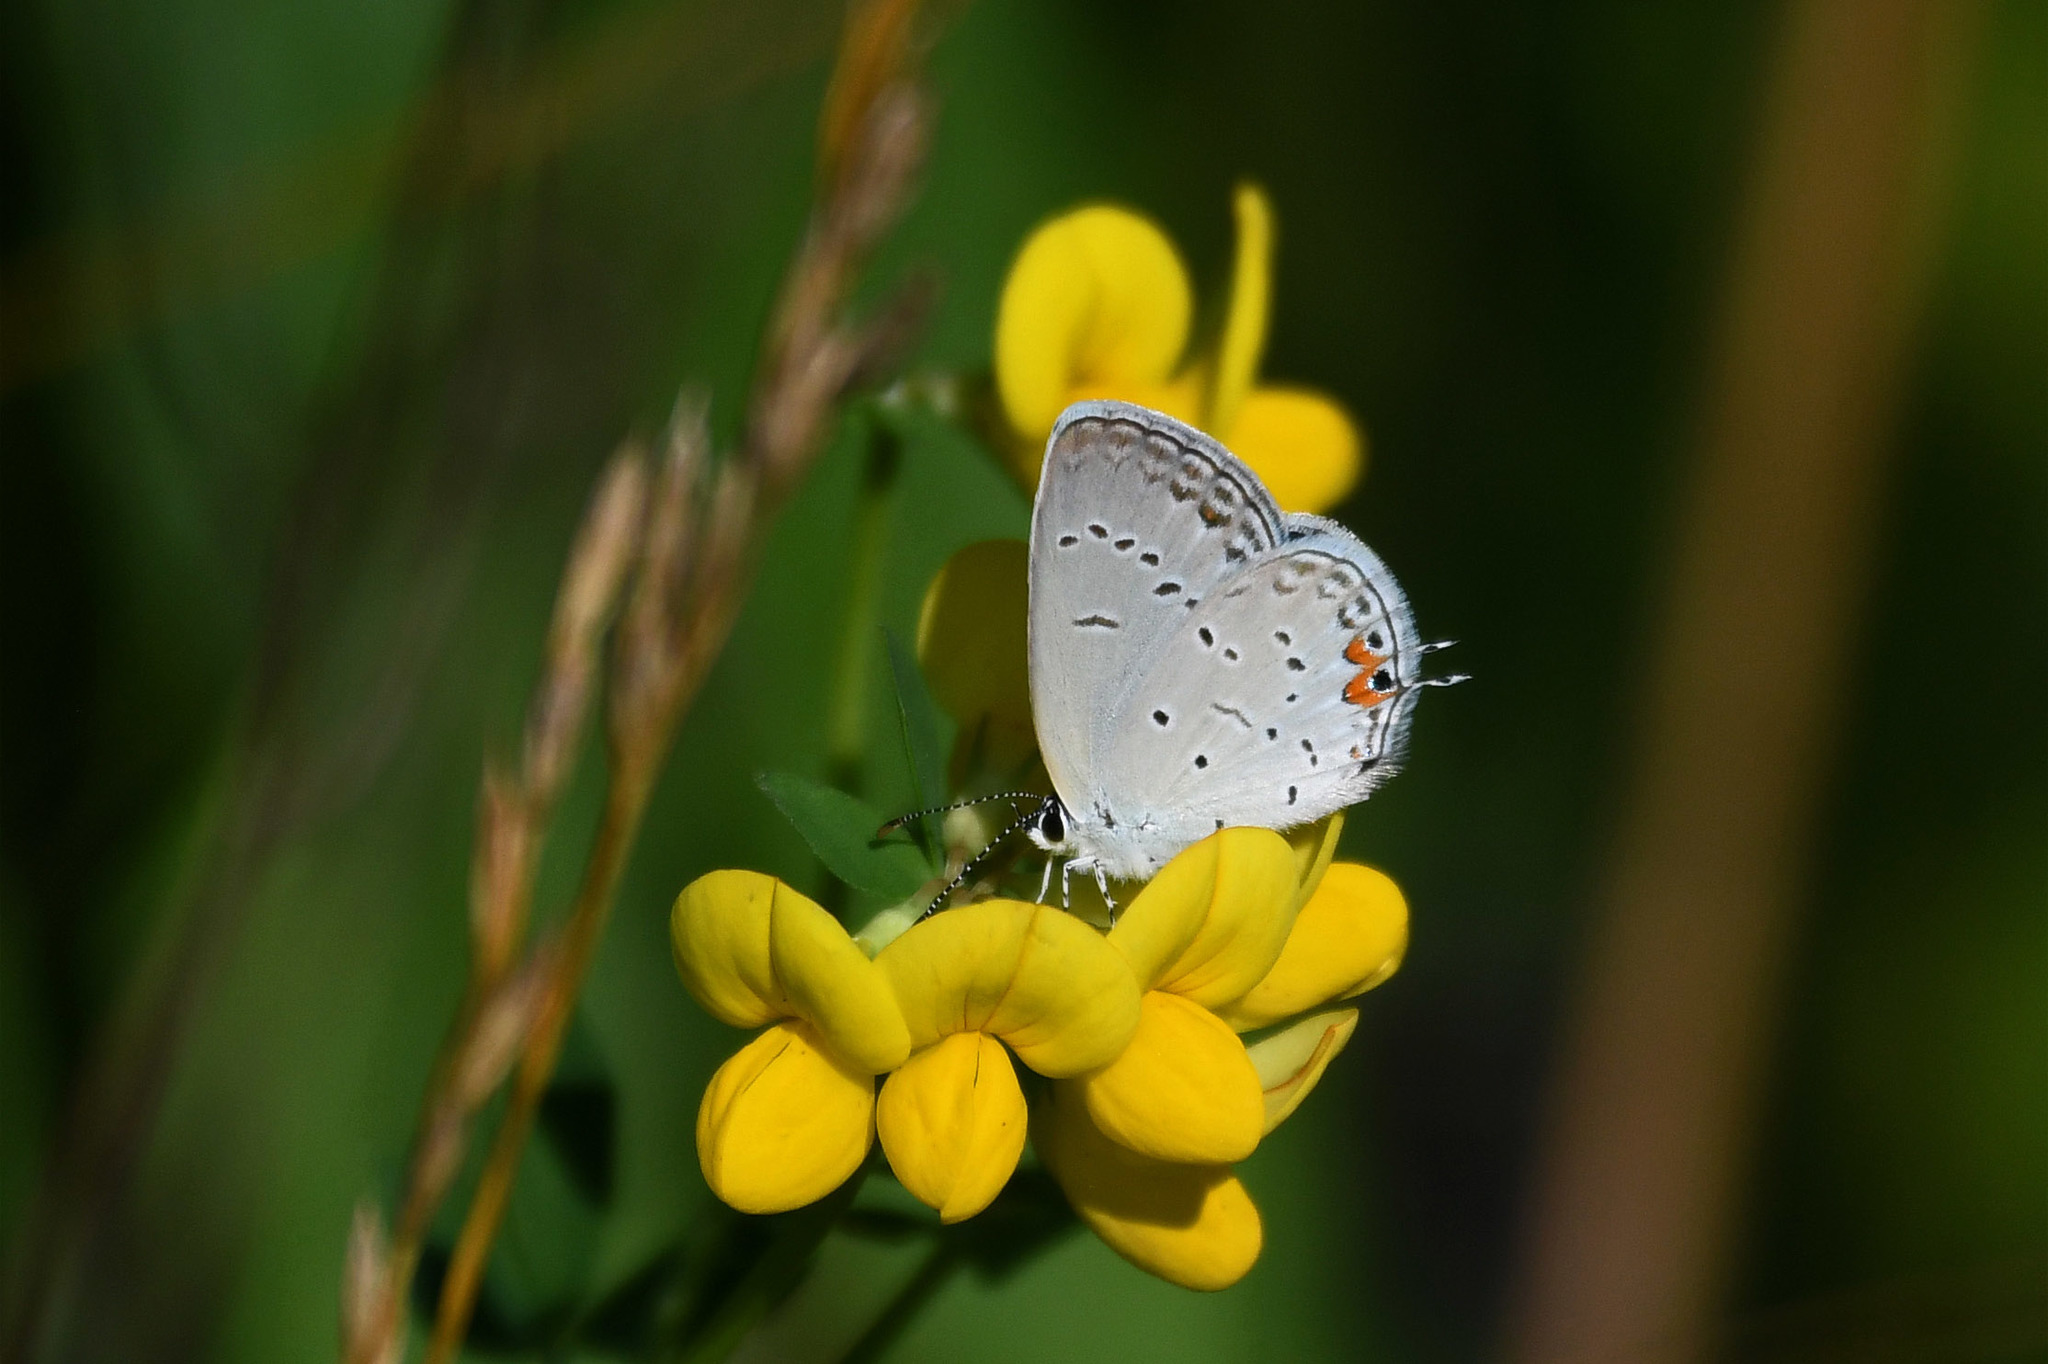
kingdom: Animalia
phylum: Arthropoda
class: Insecta
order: Lepidoptera
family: Lycaenidae
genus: Elkalyce
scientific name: Elkalyce comyntas
